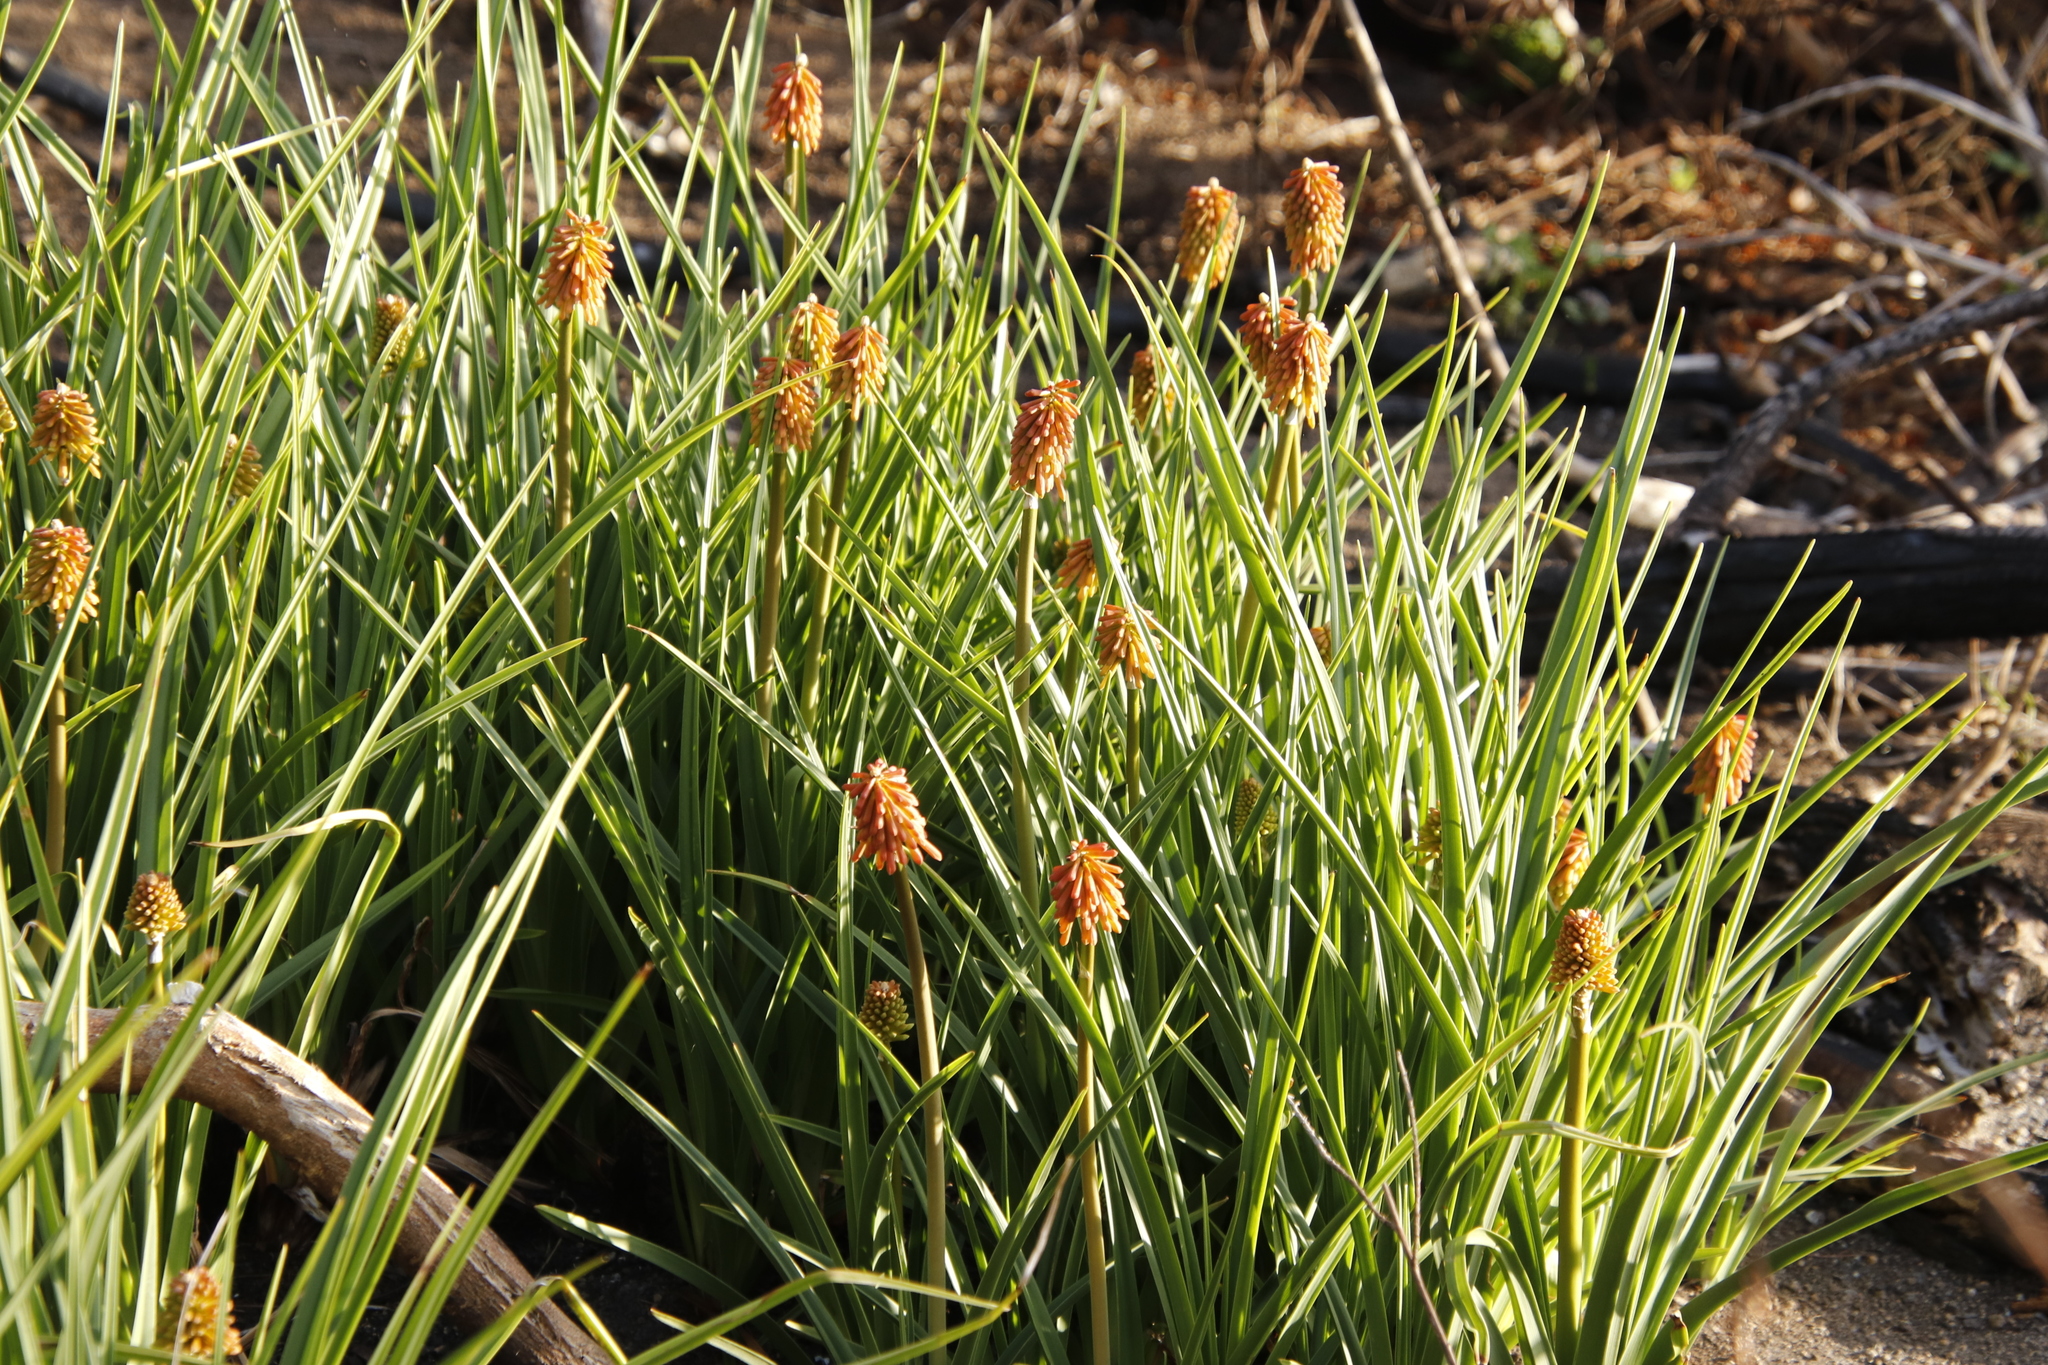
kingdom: Plantae
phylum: Tracheophyta
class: Liliopsida
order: Asparagales
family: Asphodelaceae
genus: Kniphofia
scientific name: Kniphofia uvaria
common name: Red-hot-poker
